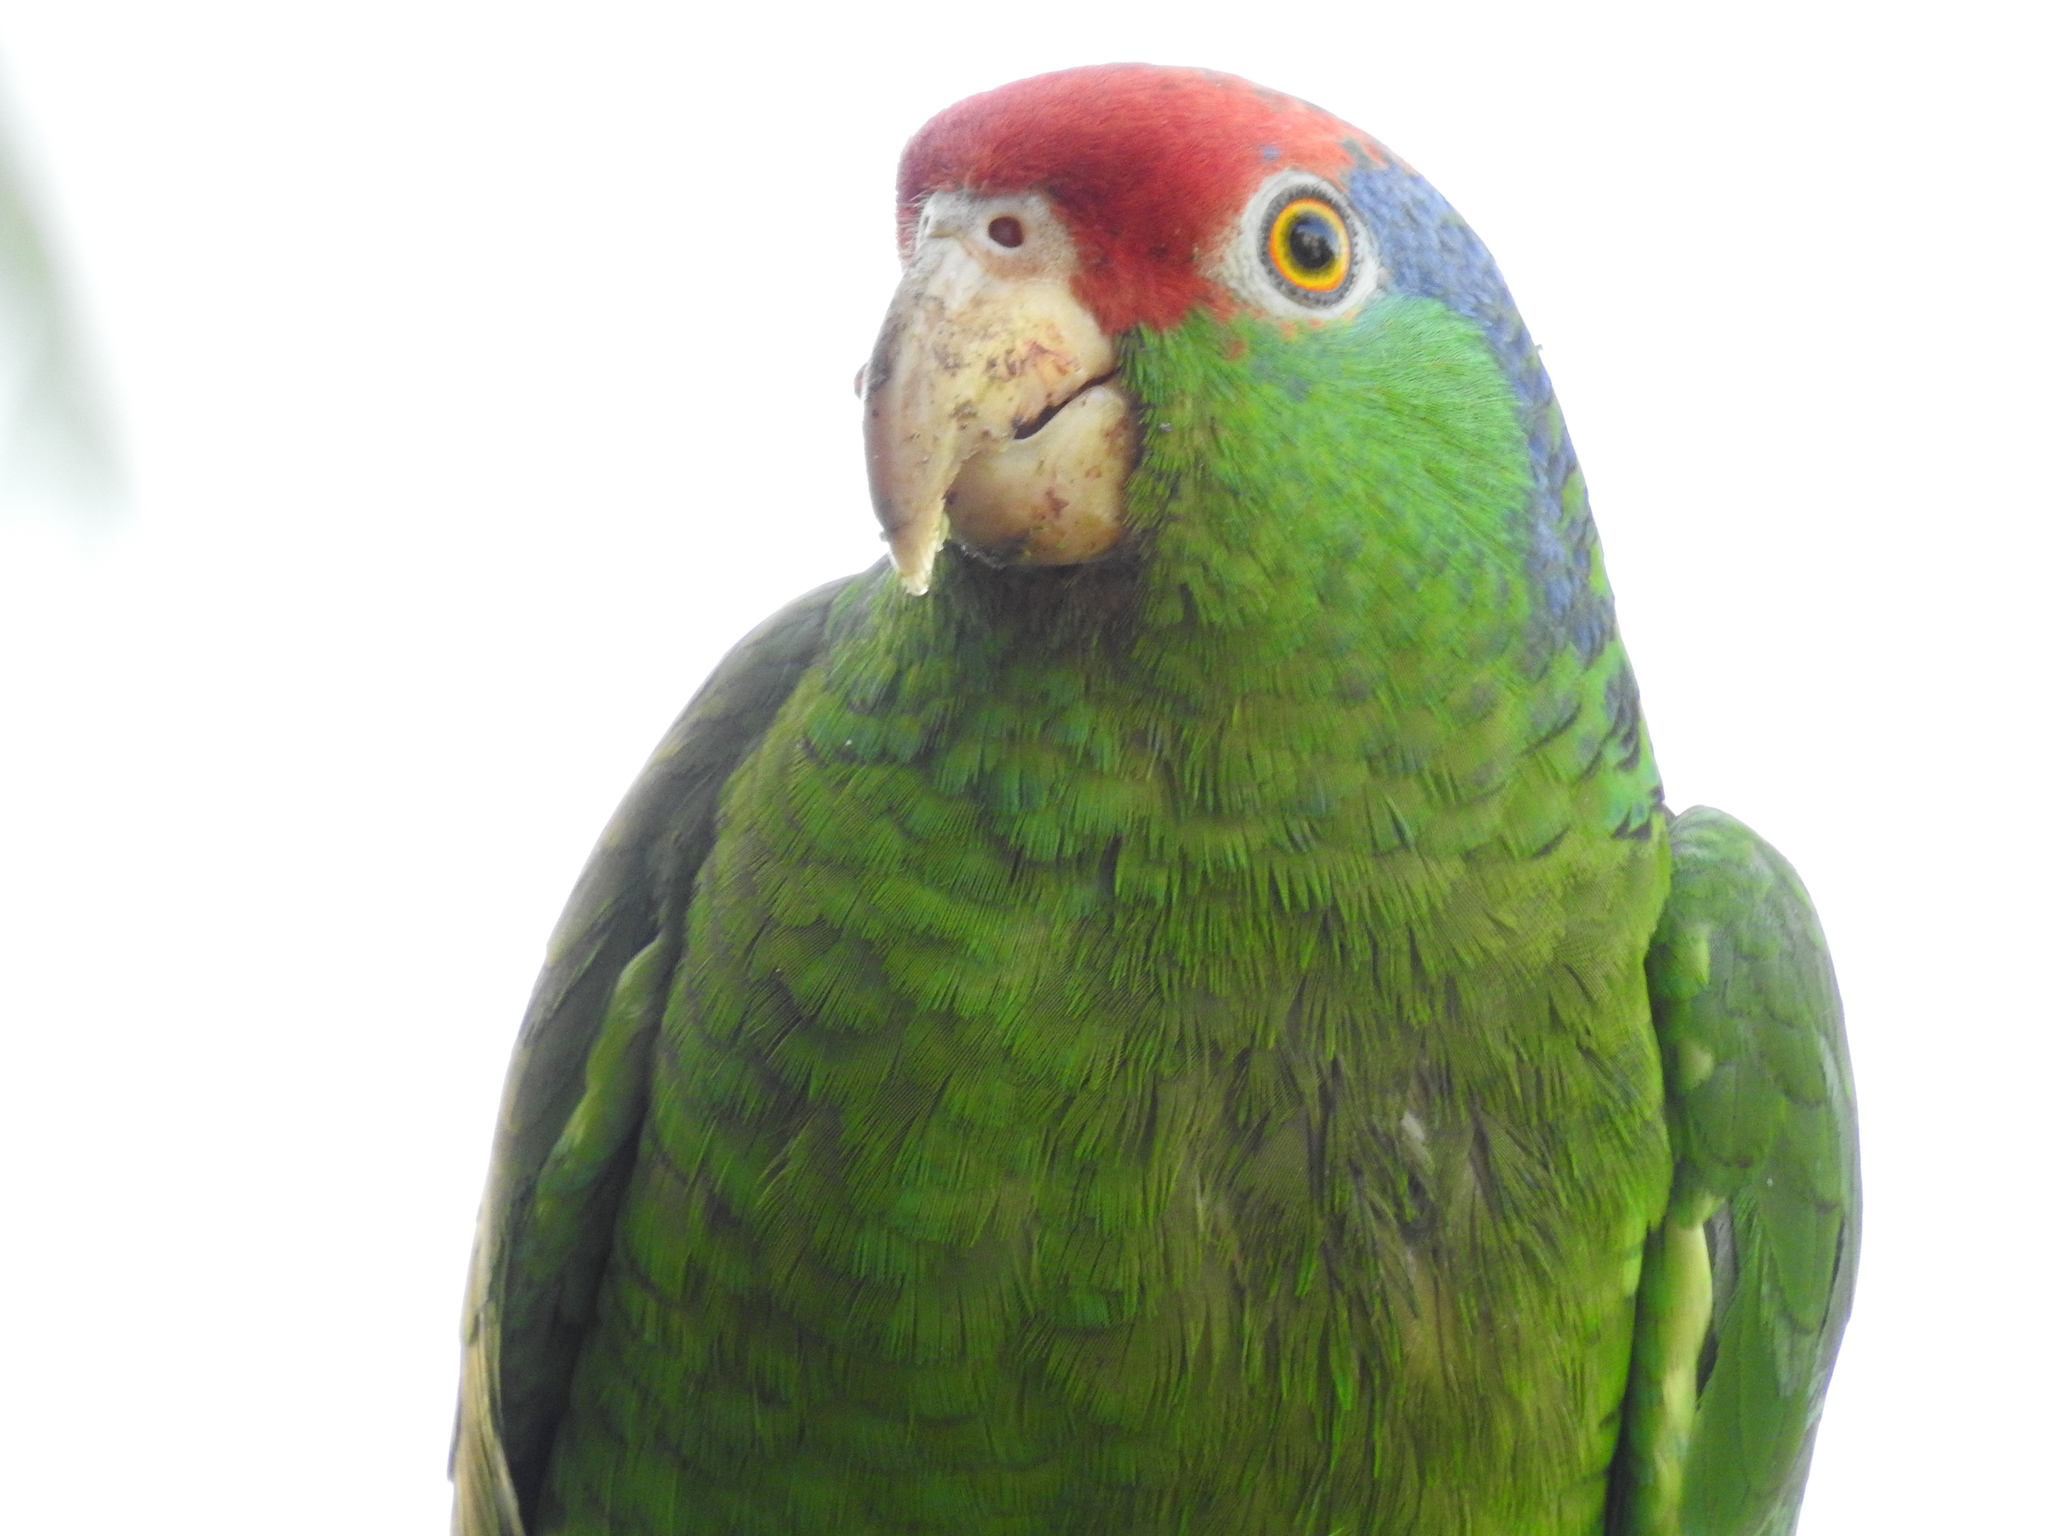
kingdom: Animalia
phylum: Chordata
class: Aves
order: Psittaciformes
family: Psittacidae
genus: Amazona
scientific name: Amazona viridigenalis
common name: Red-crowned amazon
